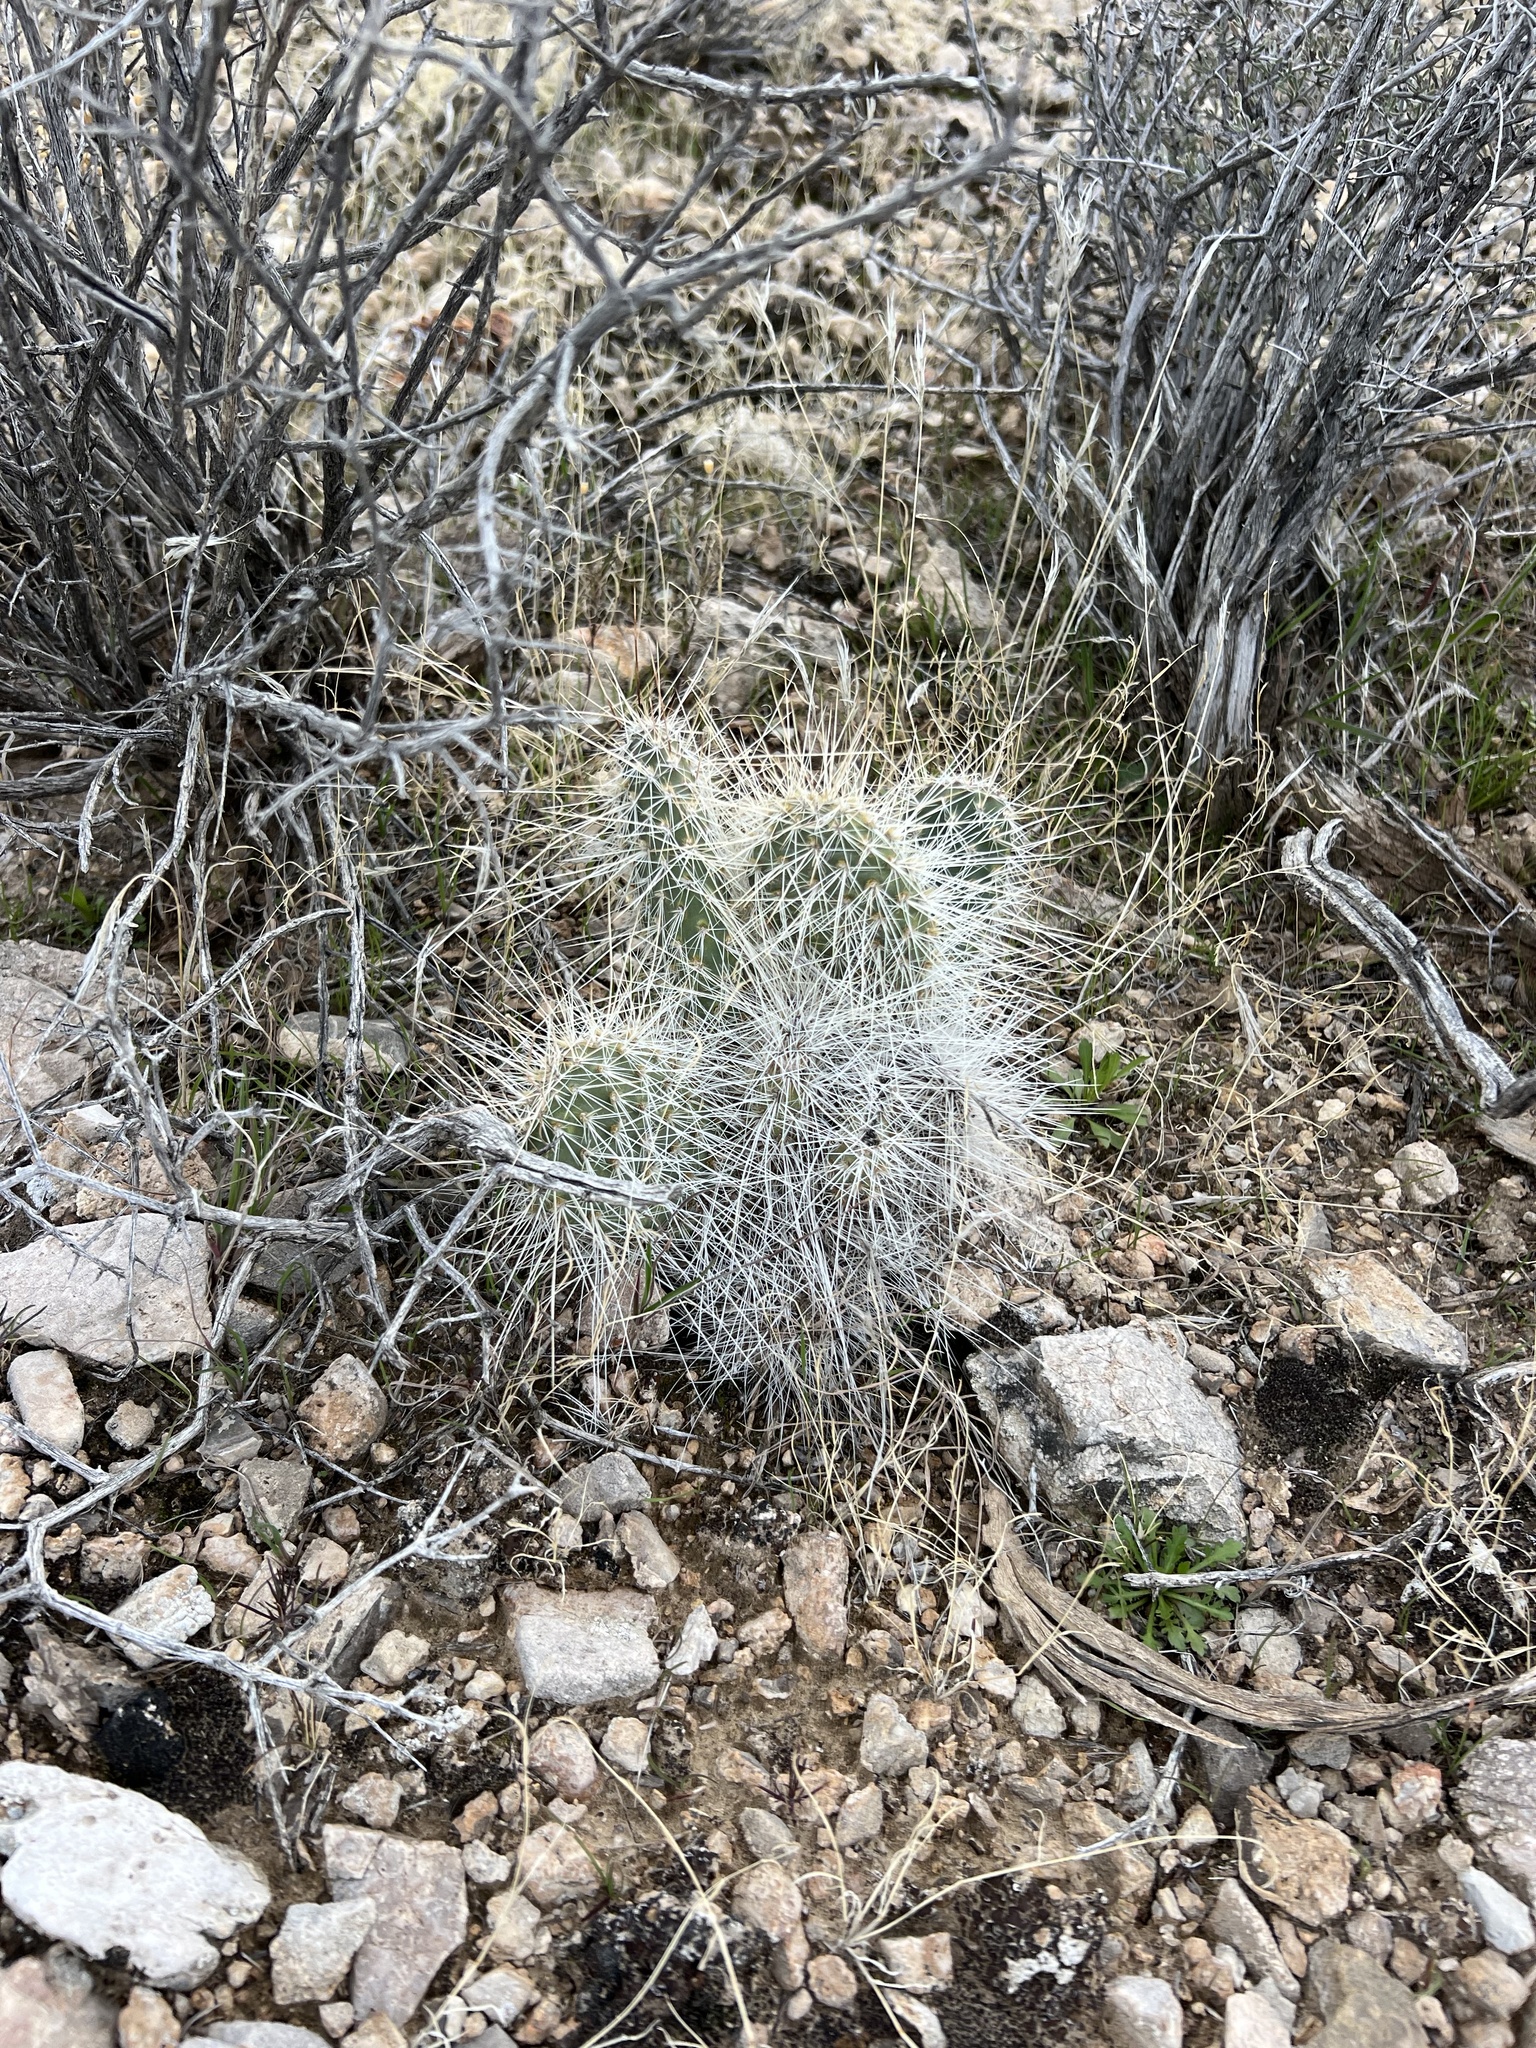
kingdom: Plantae
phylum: Tracheophyta
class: Magnoliopsida
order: Caryophyllales
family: Cactaceae
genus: Opuntia
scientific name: Opuntia polyacantha
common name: Plains prickly-pear
